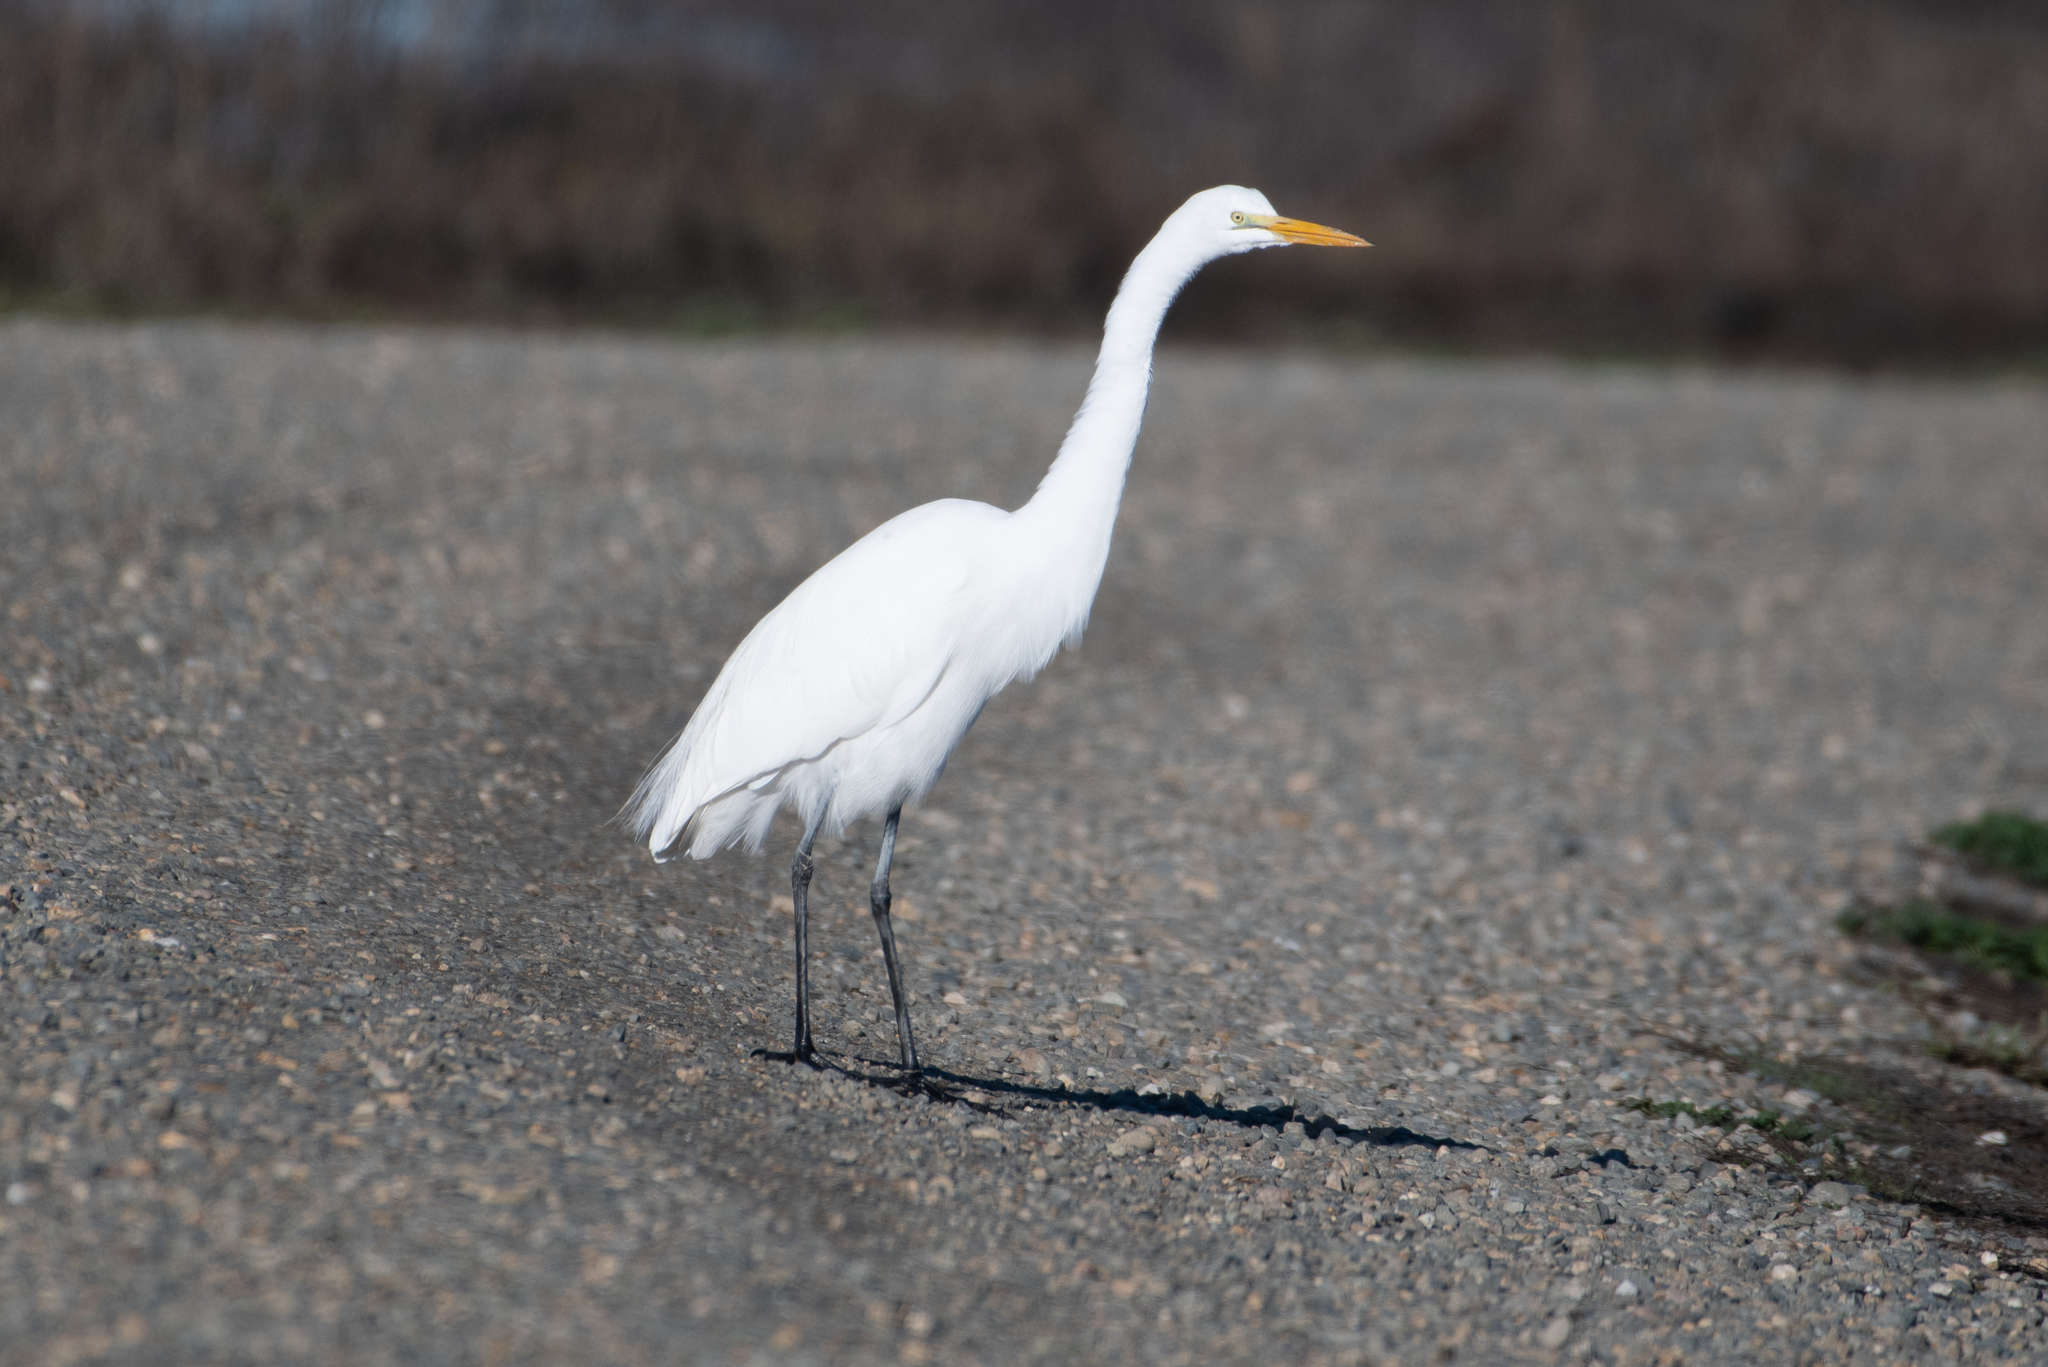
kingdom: Animalia
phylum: Chordata
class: Aves
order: Pelecaniformes
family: Ardeidae
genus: Ardea
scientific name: Ardea alba
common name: Great egret
